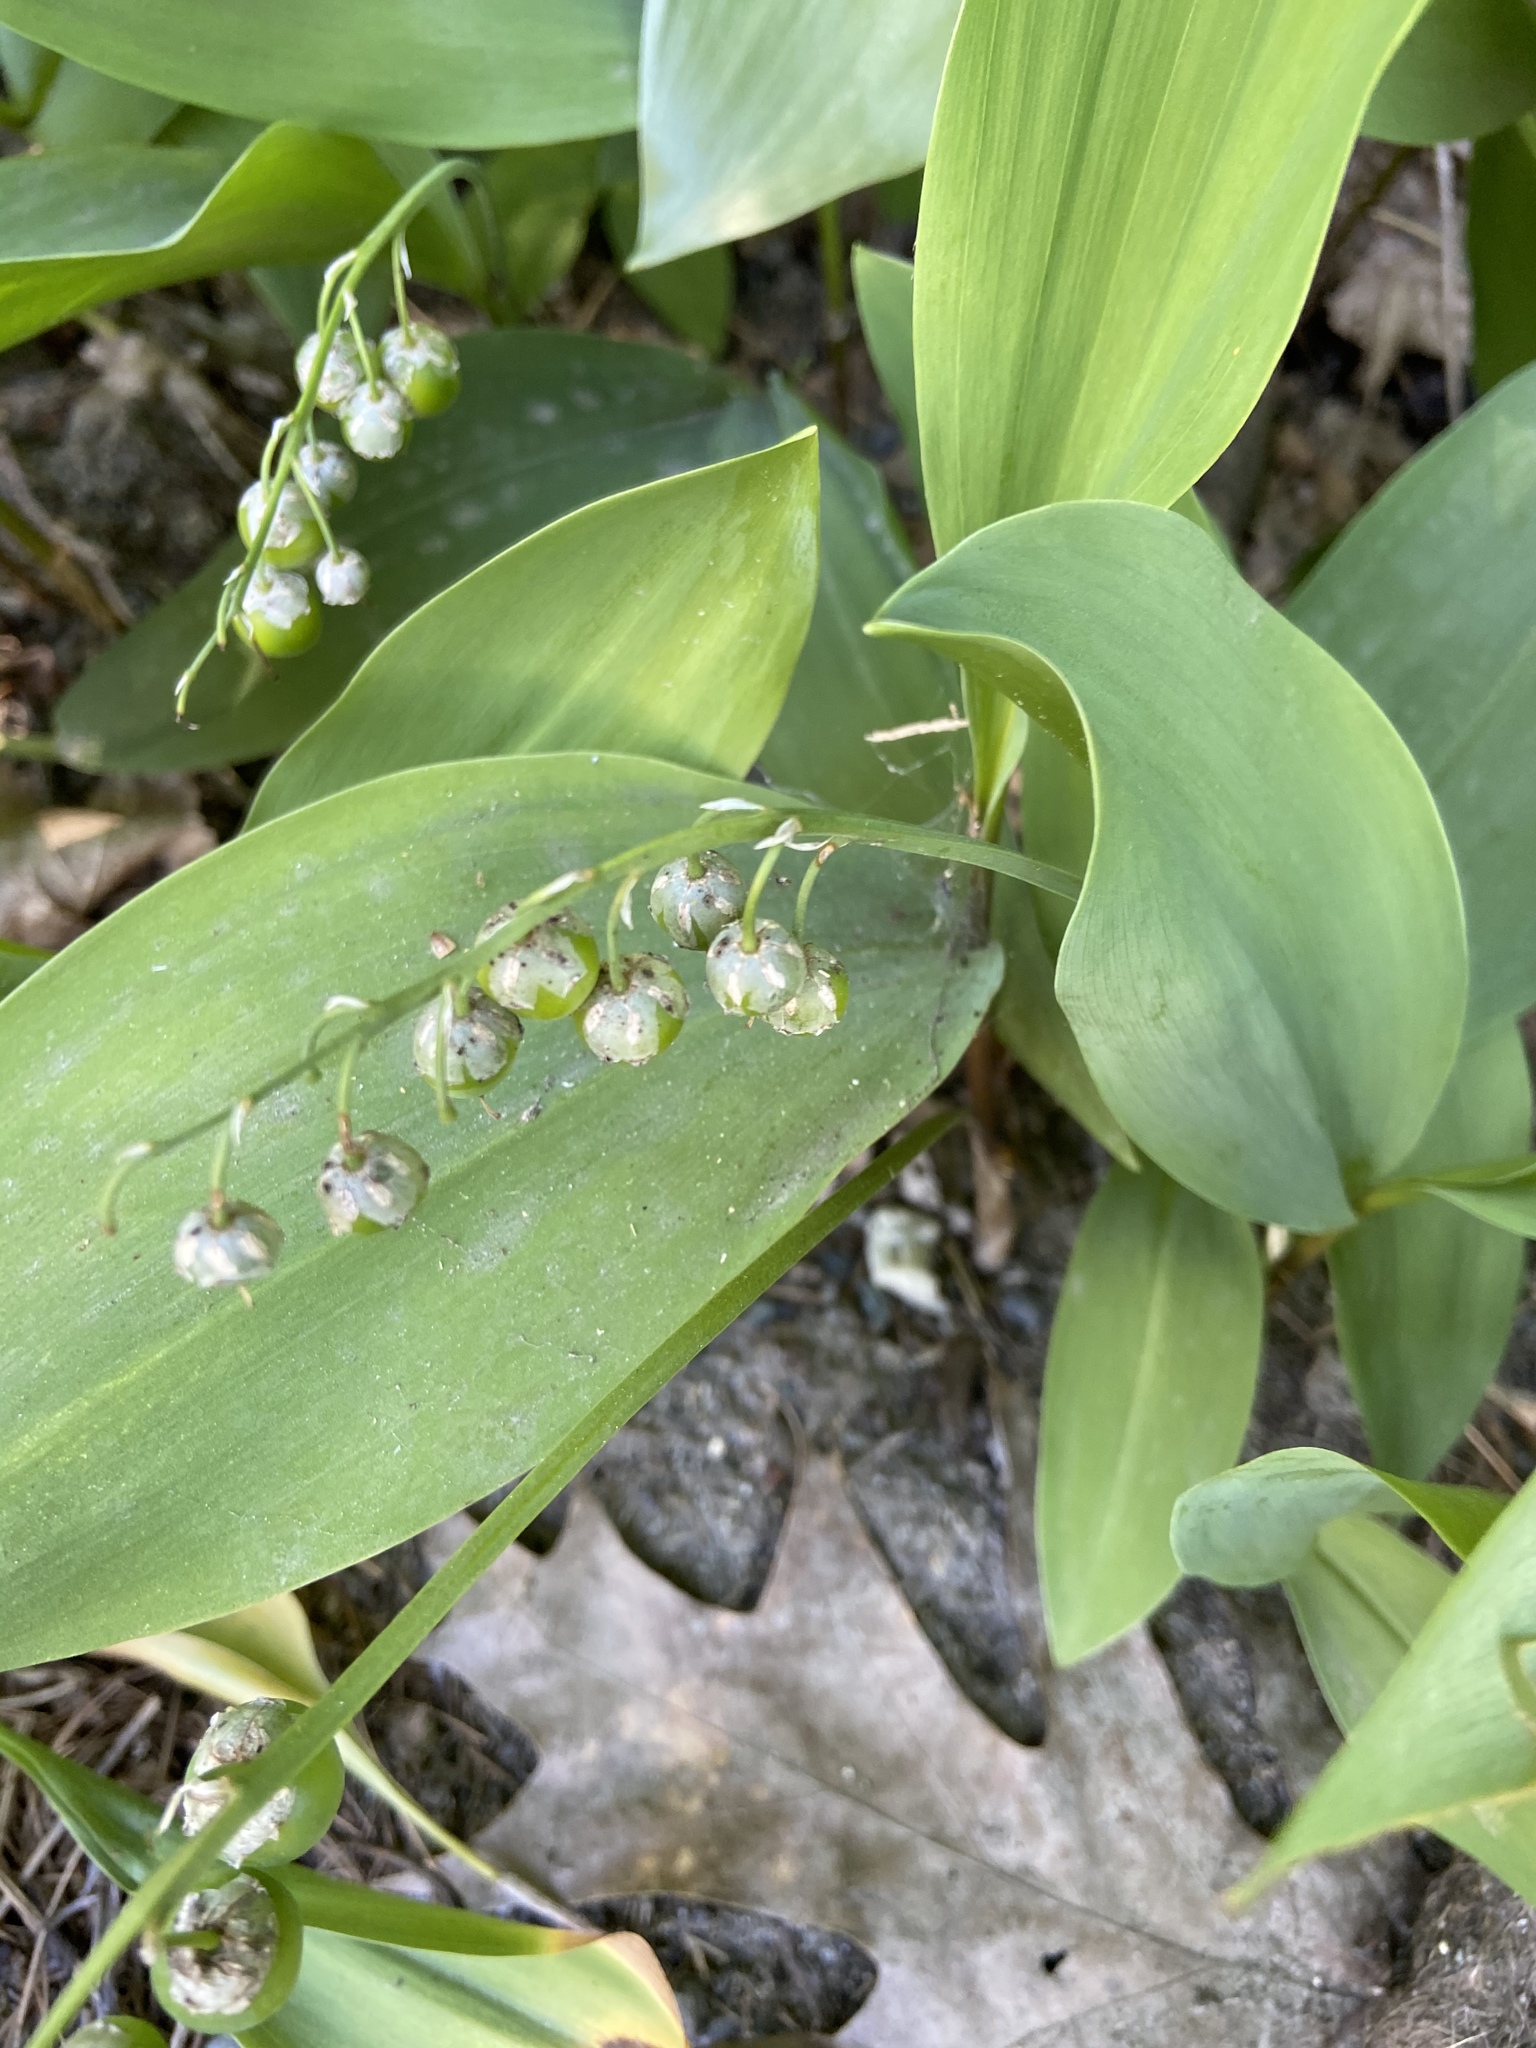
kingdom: Plantae
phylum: Tracheophyta
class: Liliopsida
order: Asparagales
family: Asparagaceae
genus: Convallaria
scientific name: Convallaria majalis
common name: Lily-of-the-valley
